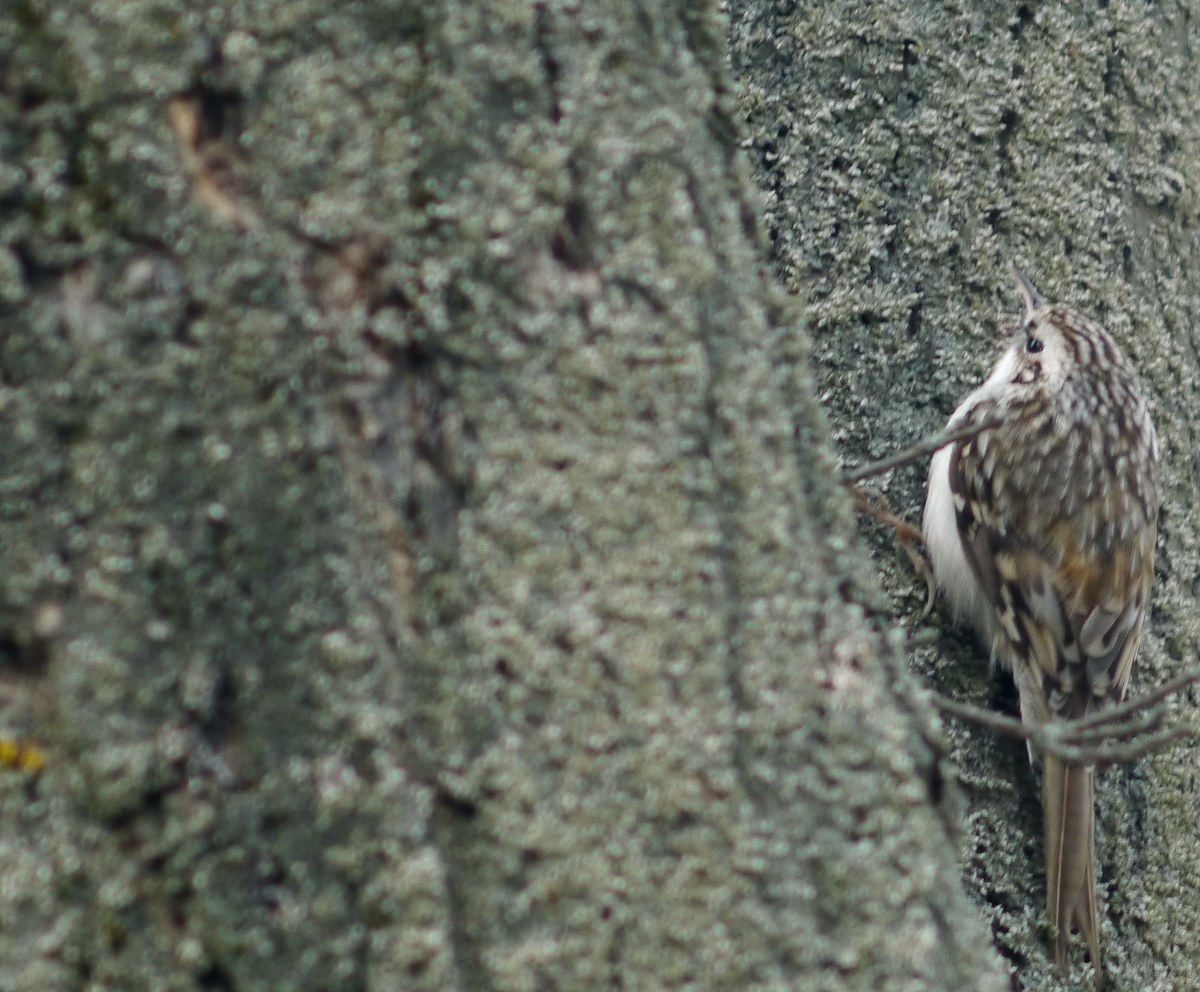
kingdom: Animalia
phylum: Chordata
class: Aves
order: Passeriformes
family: Certhiidae
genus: Certhia
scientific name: Certhia familiaris
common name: Eurasian treecreeper
